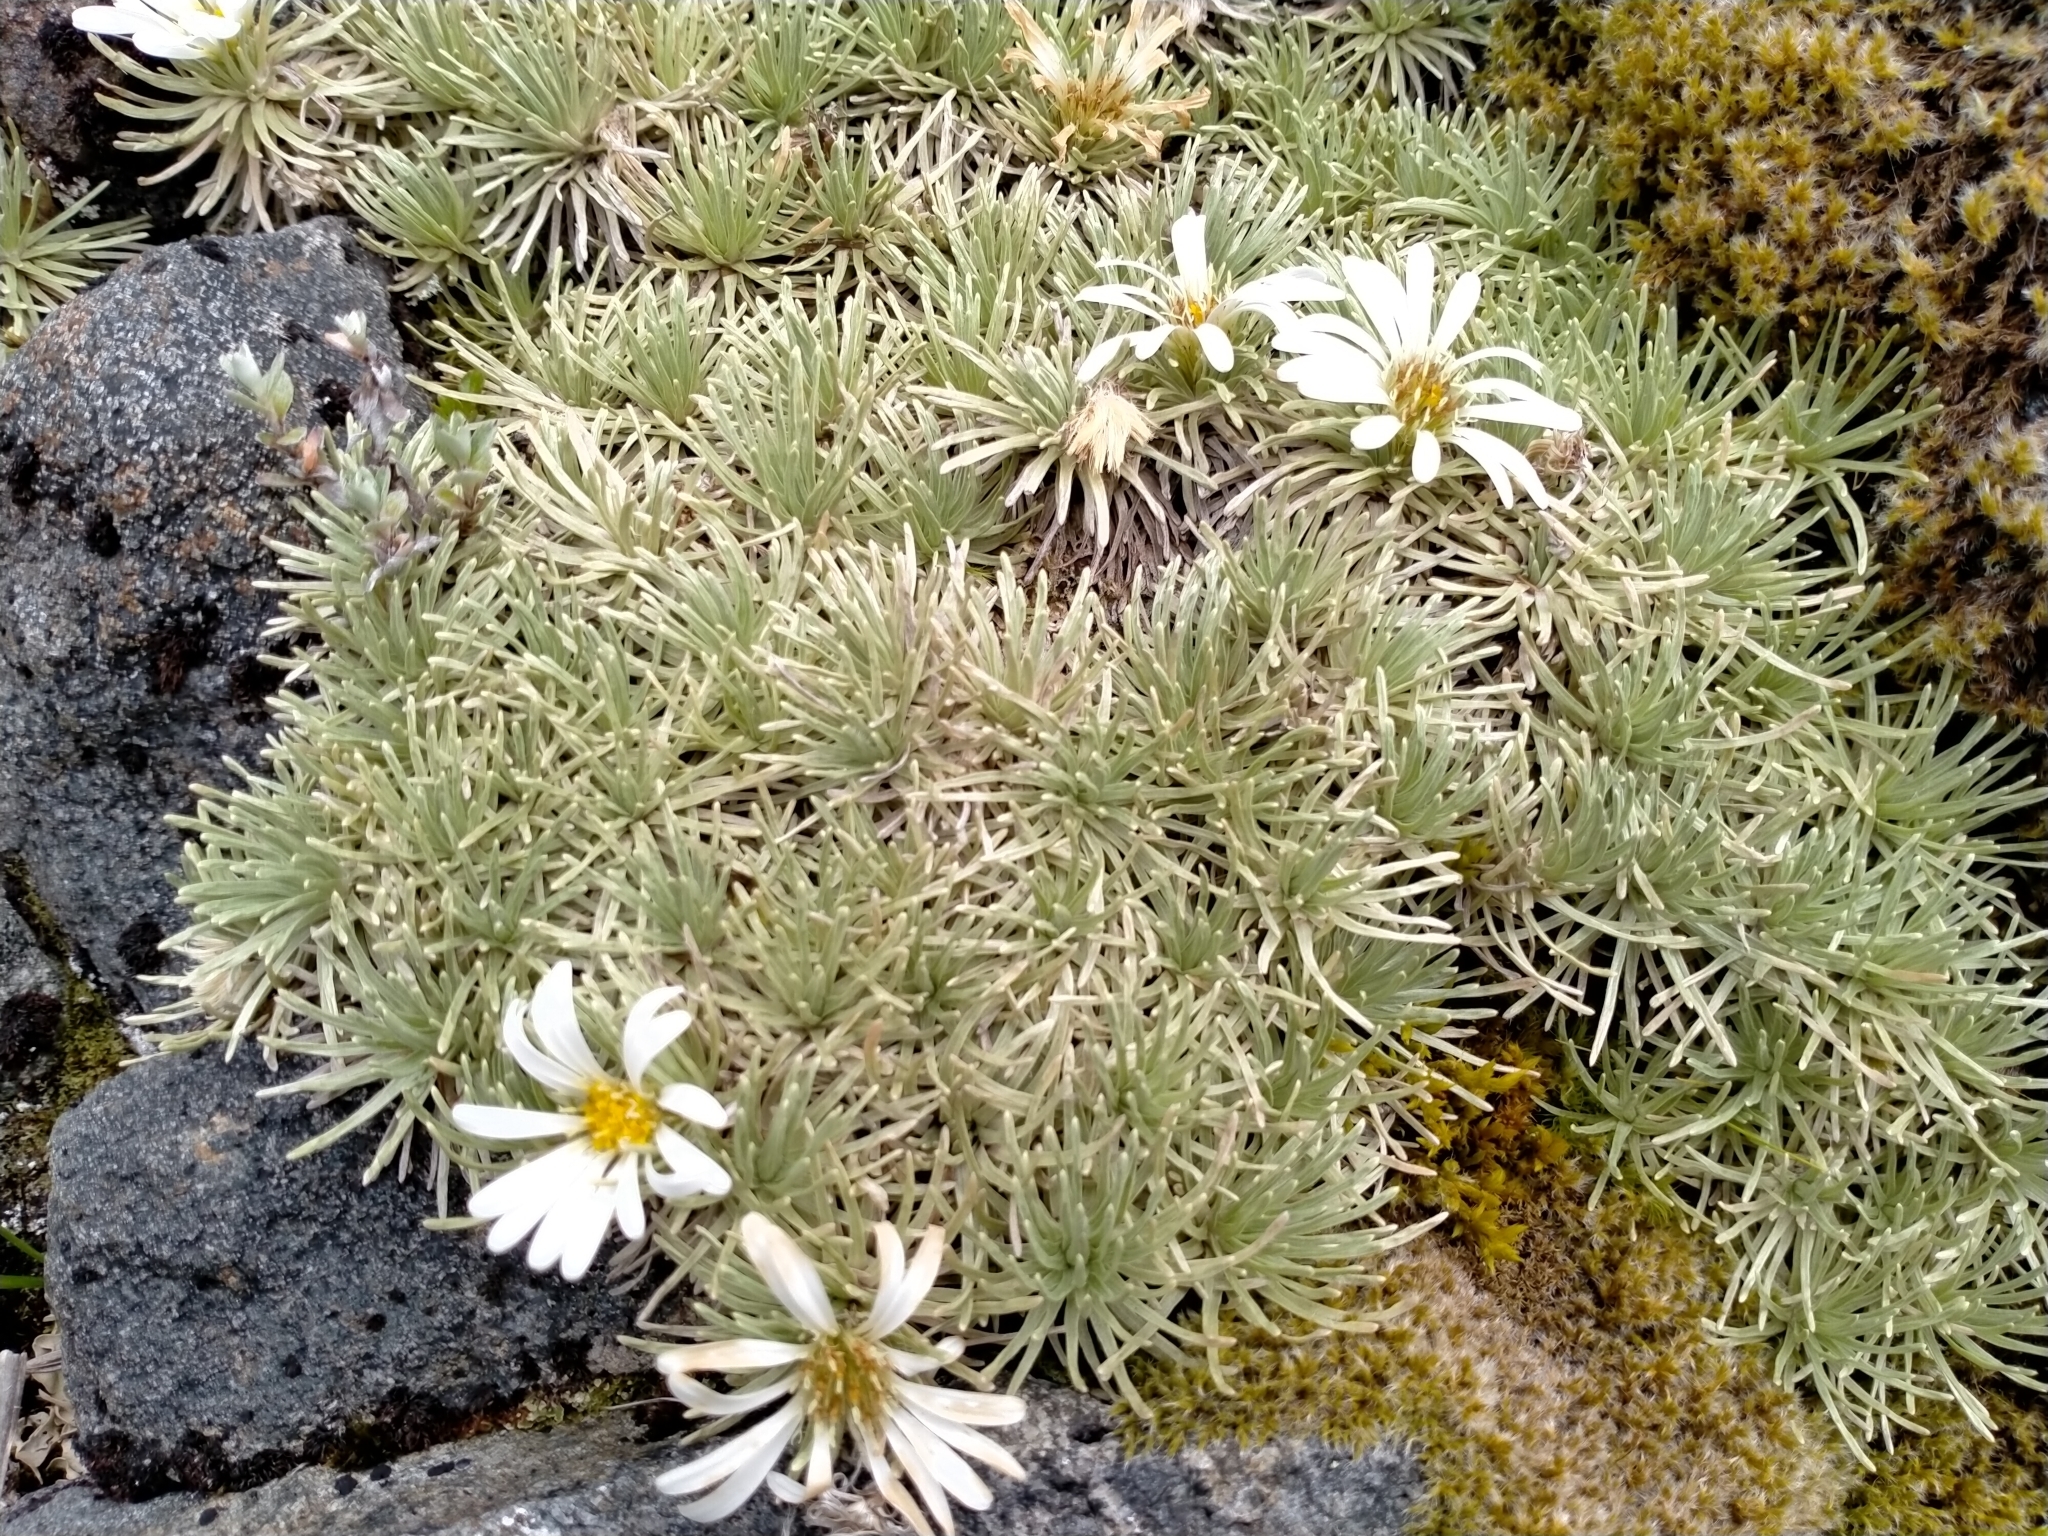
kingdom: Plantae
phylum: Tracheophyta
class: Magnoliopsida
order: Asterales
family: Asteraceae
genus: Celmisia
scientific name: Celmisia sessiliflora
